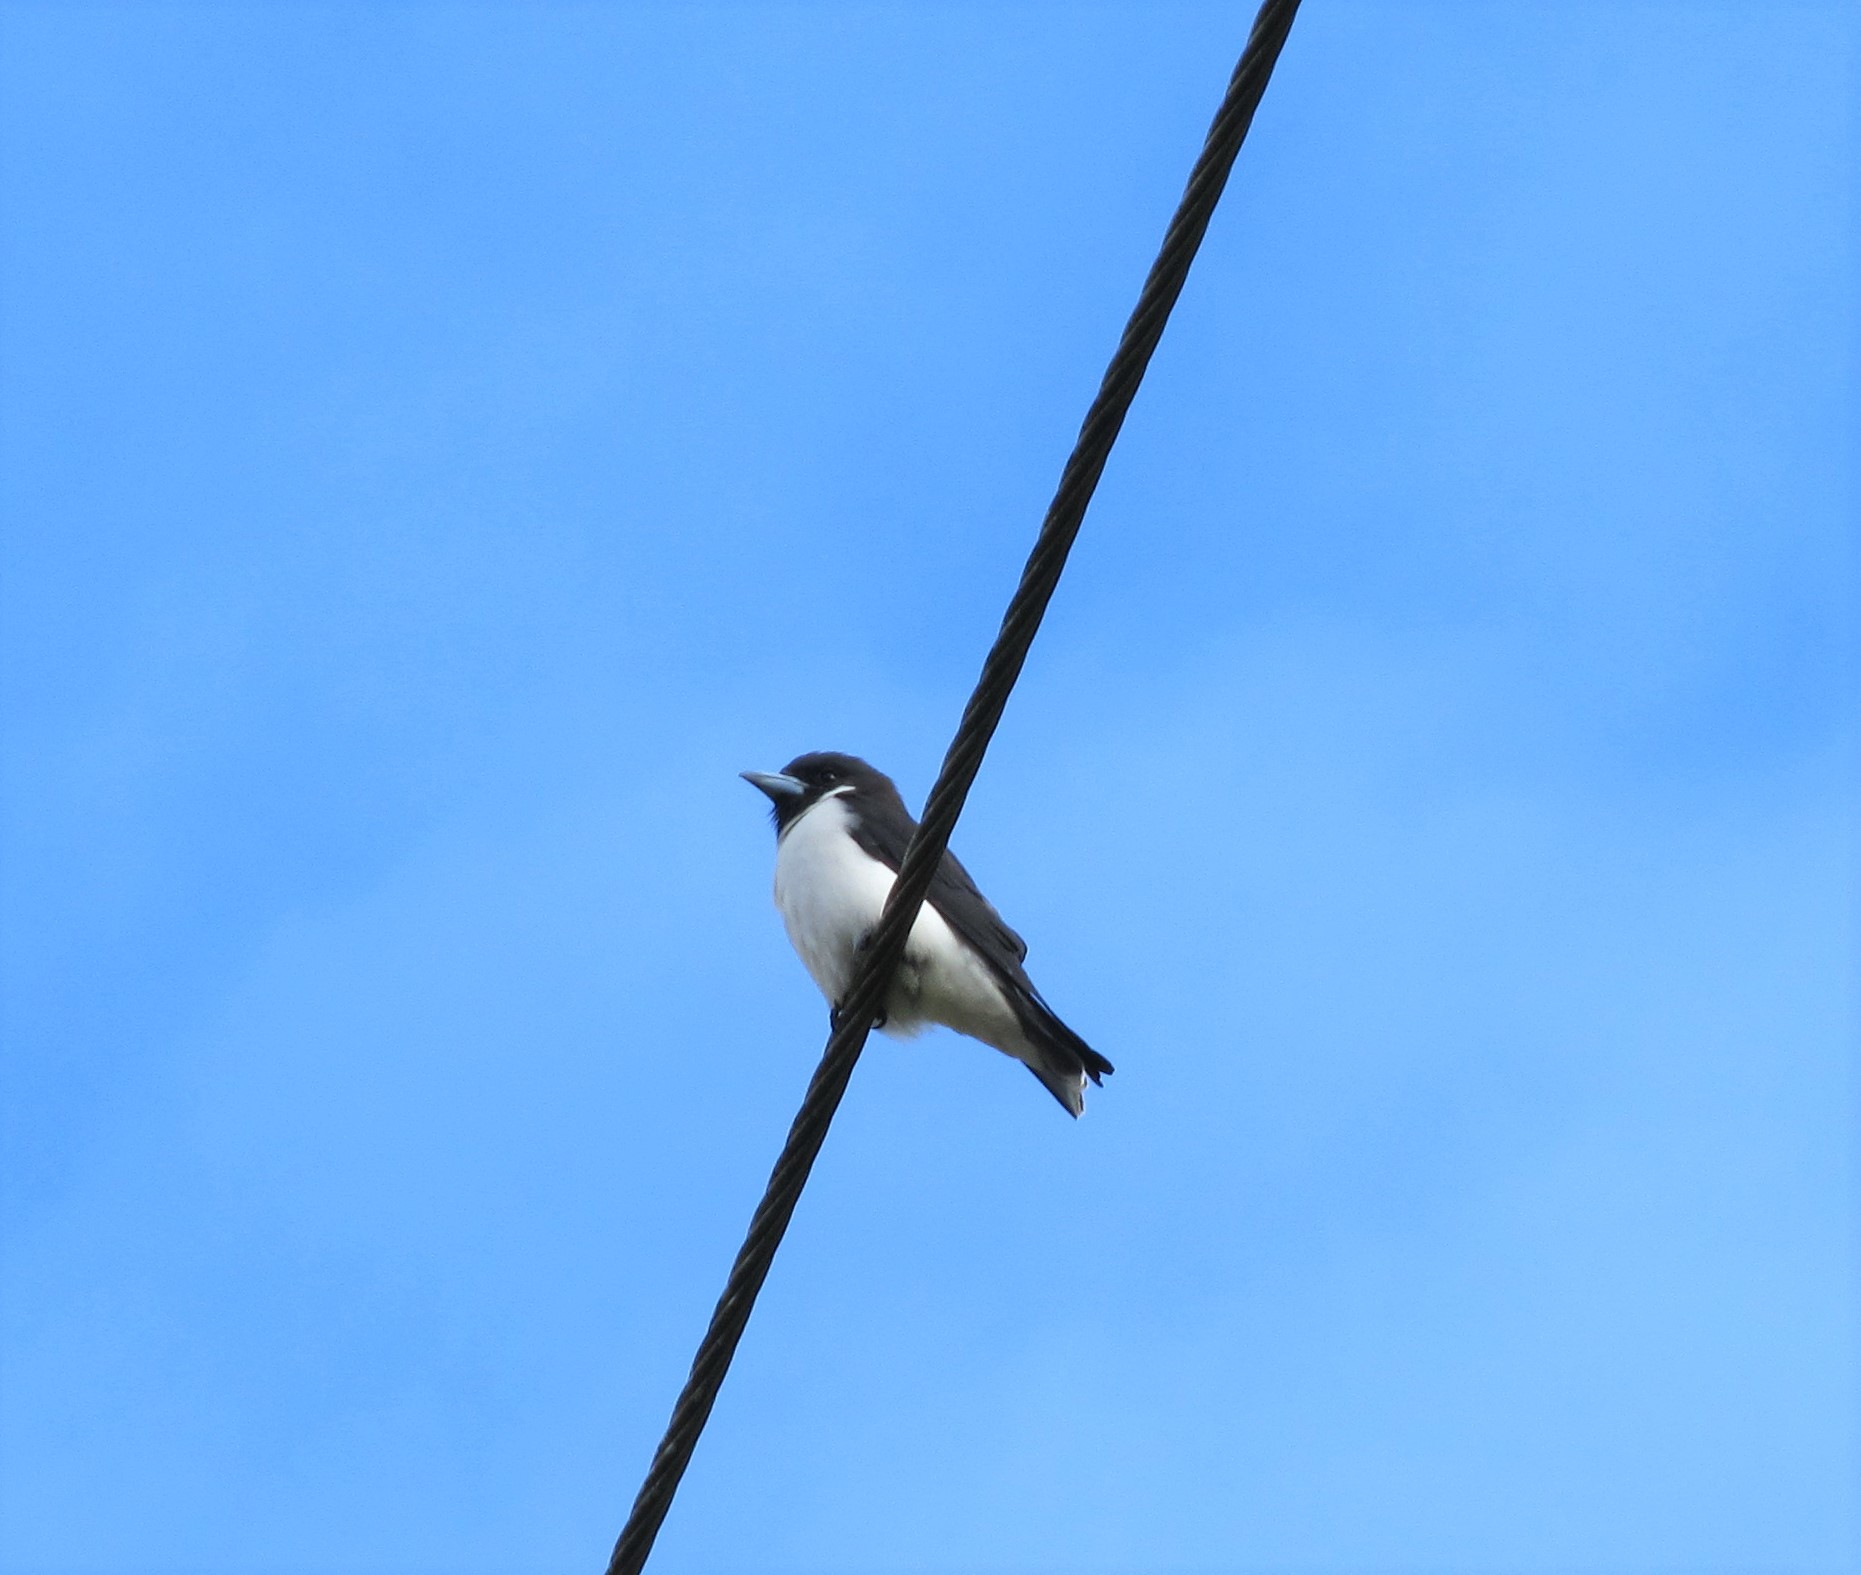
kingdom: Animalia
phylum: Chordata
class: Aves
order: Passeriformes
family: Artamidae
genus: Artamus
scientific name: Artamus mentalis
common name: Fiji woodswallow
